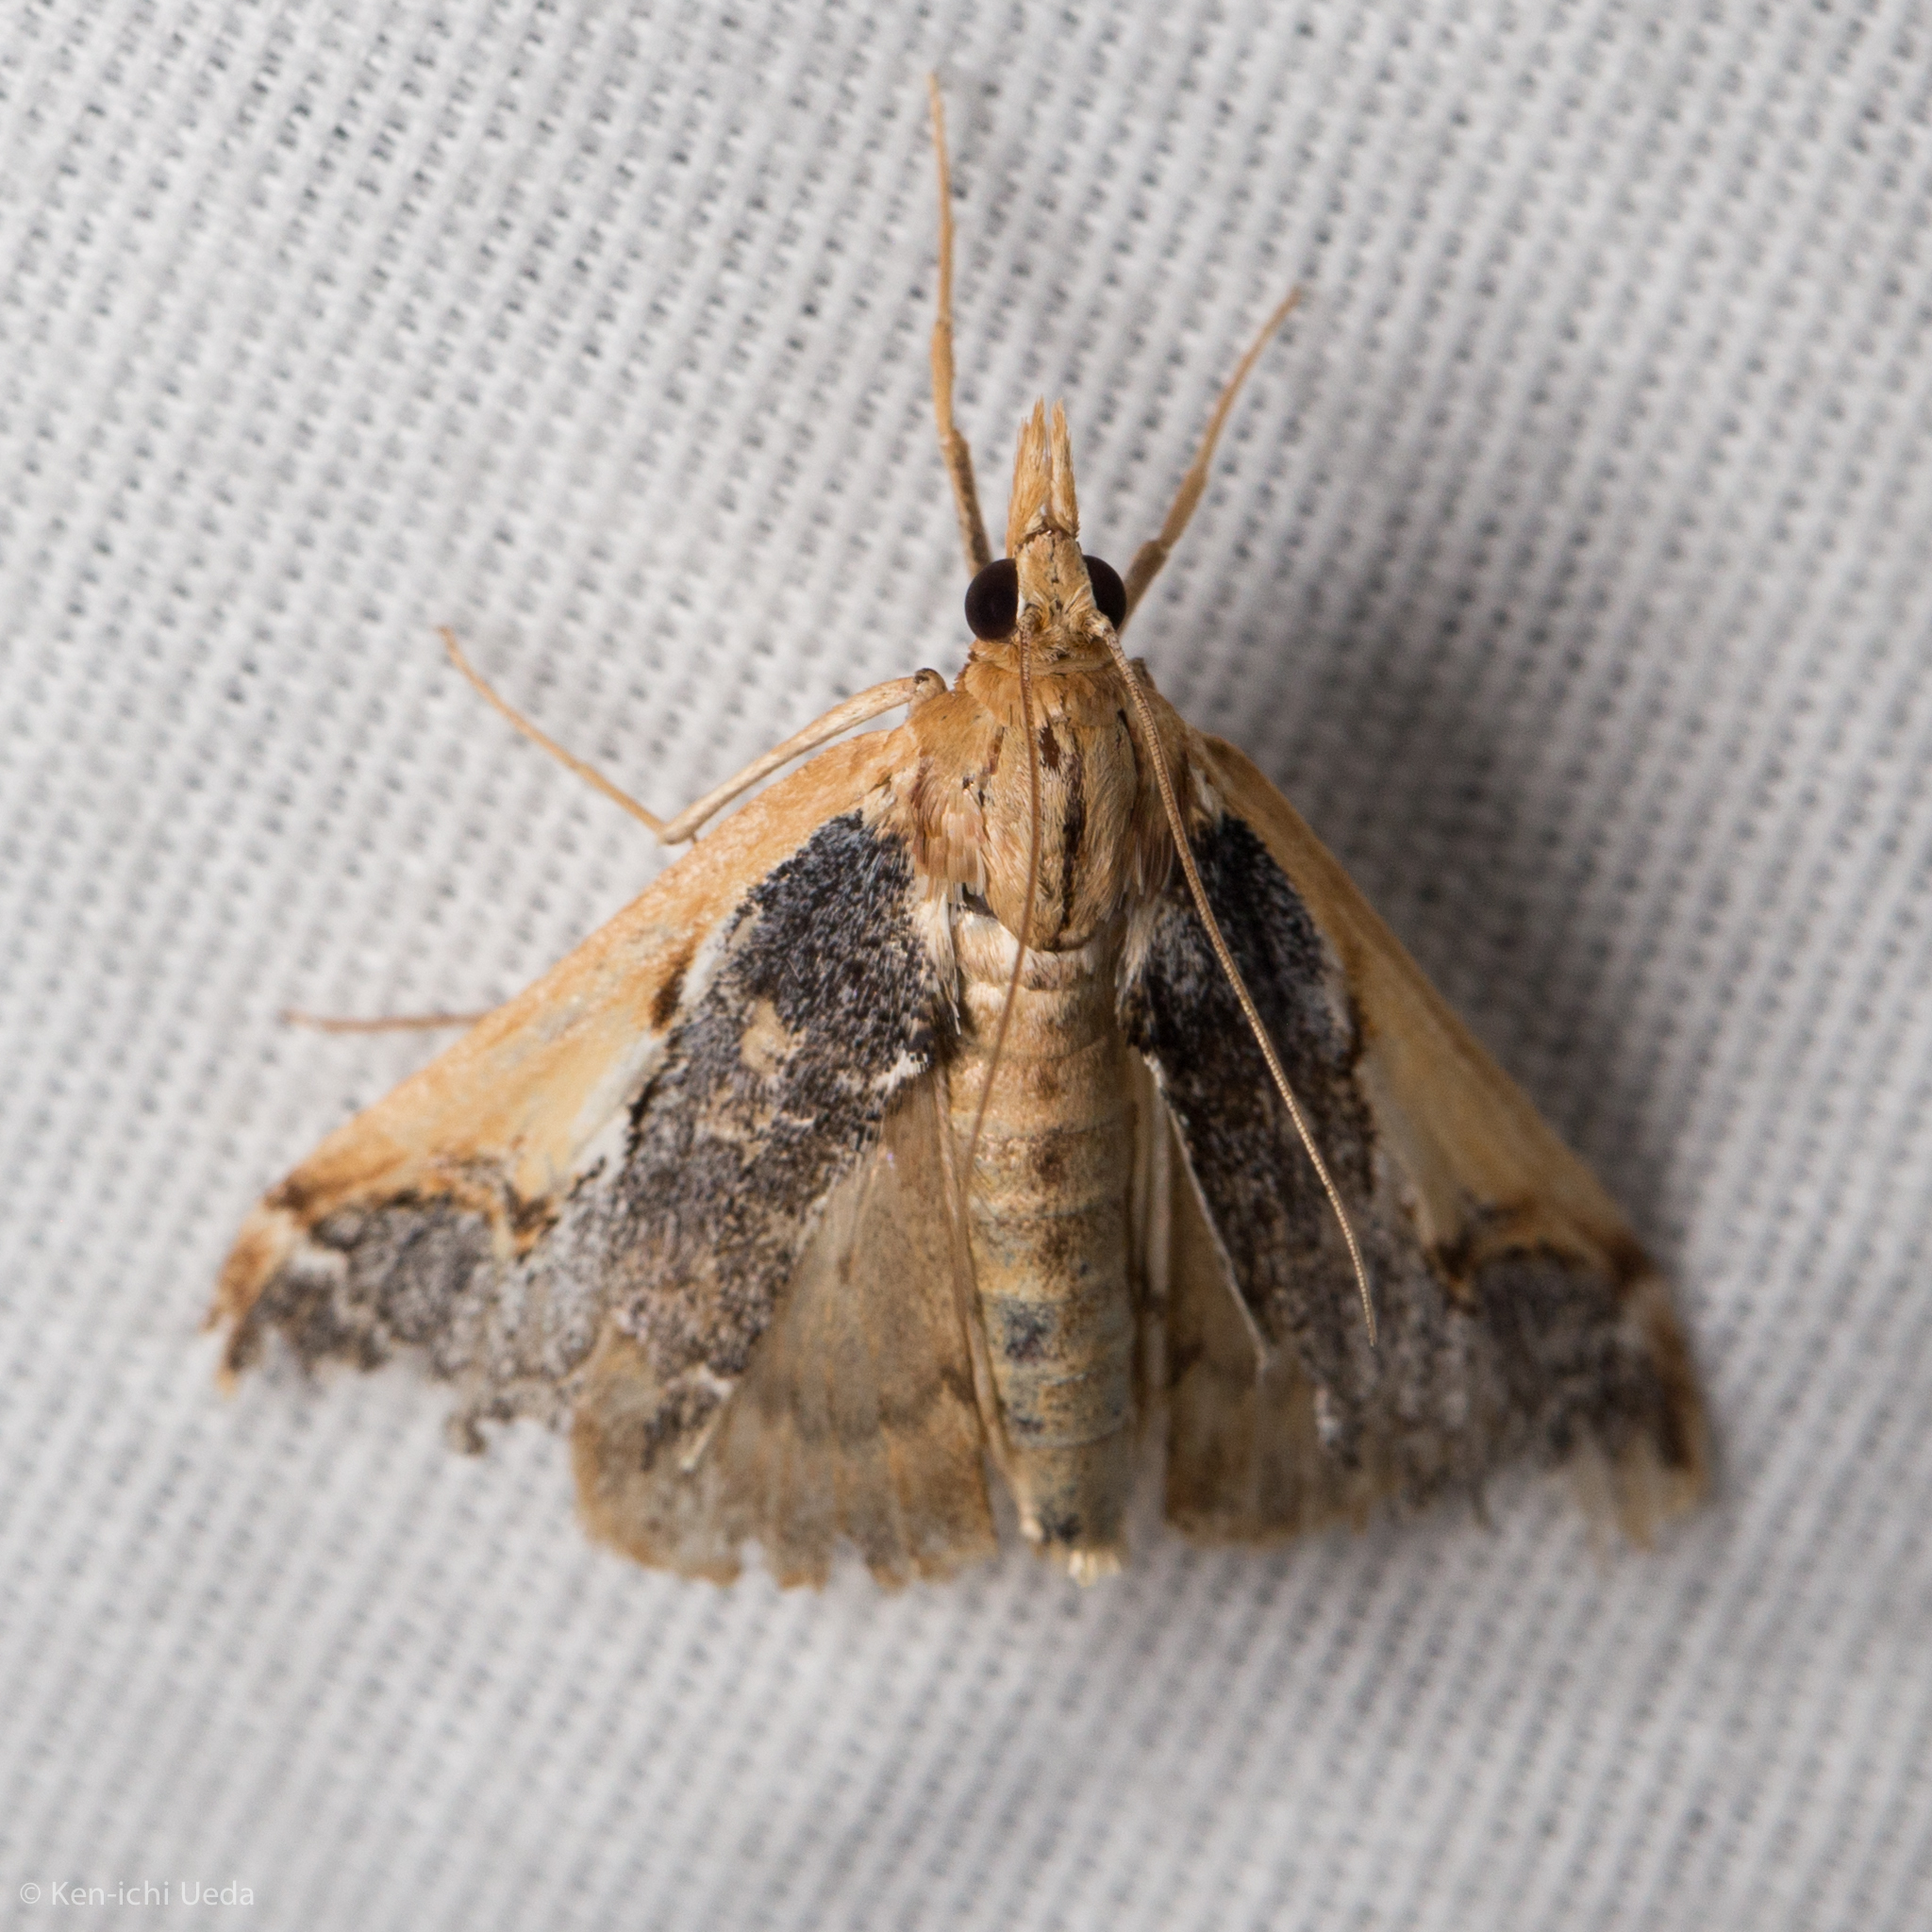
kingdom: Animalia
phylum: Arthropoda
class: Insecta
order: Lepidoptera
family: Crambidae
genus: Loxostege
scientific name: Loxostege albiceralis
